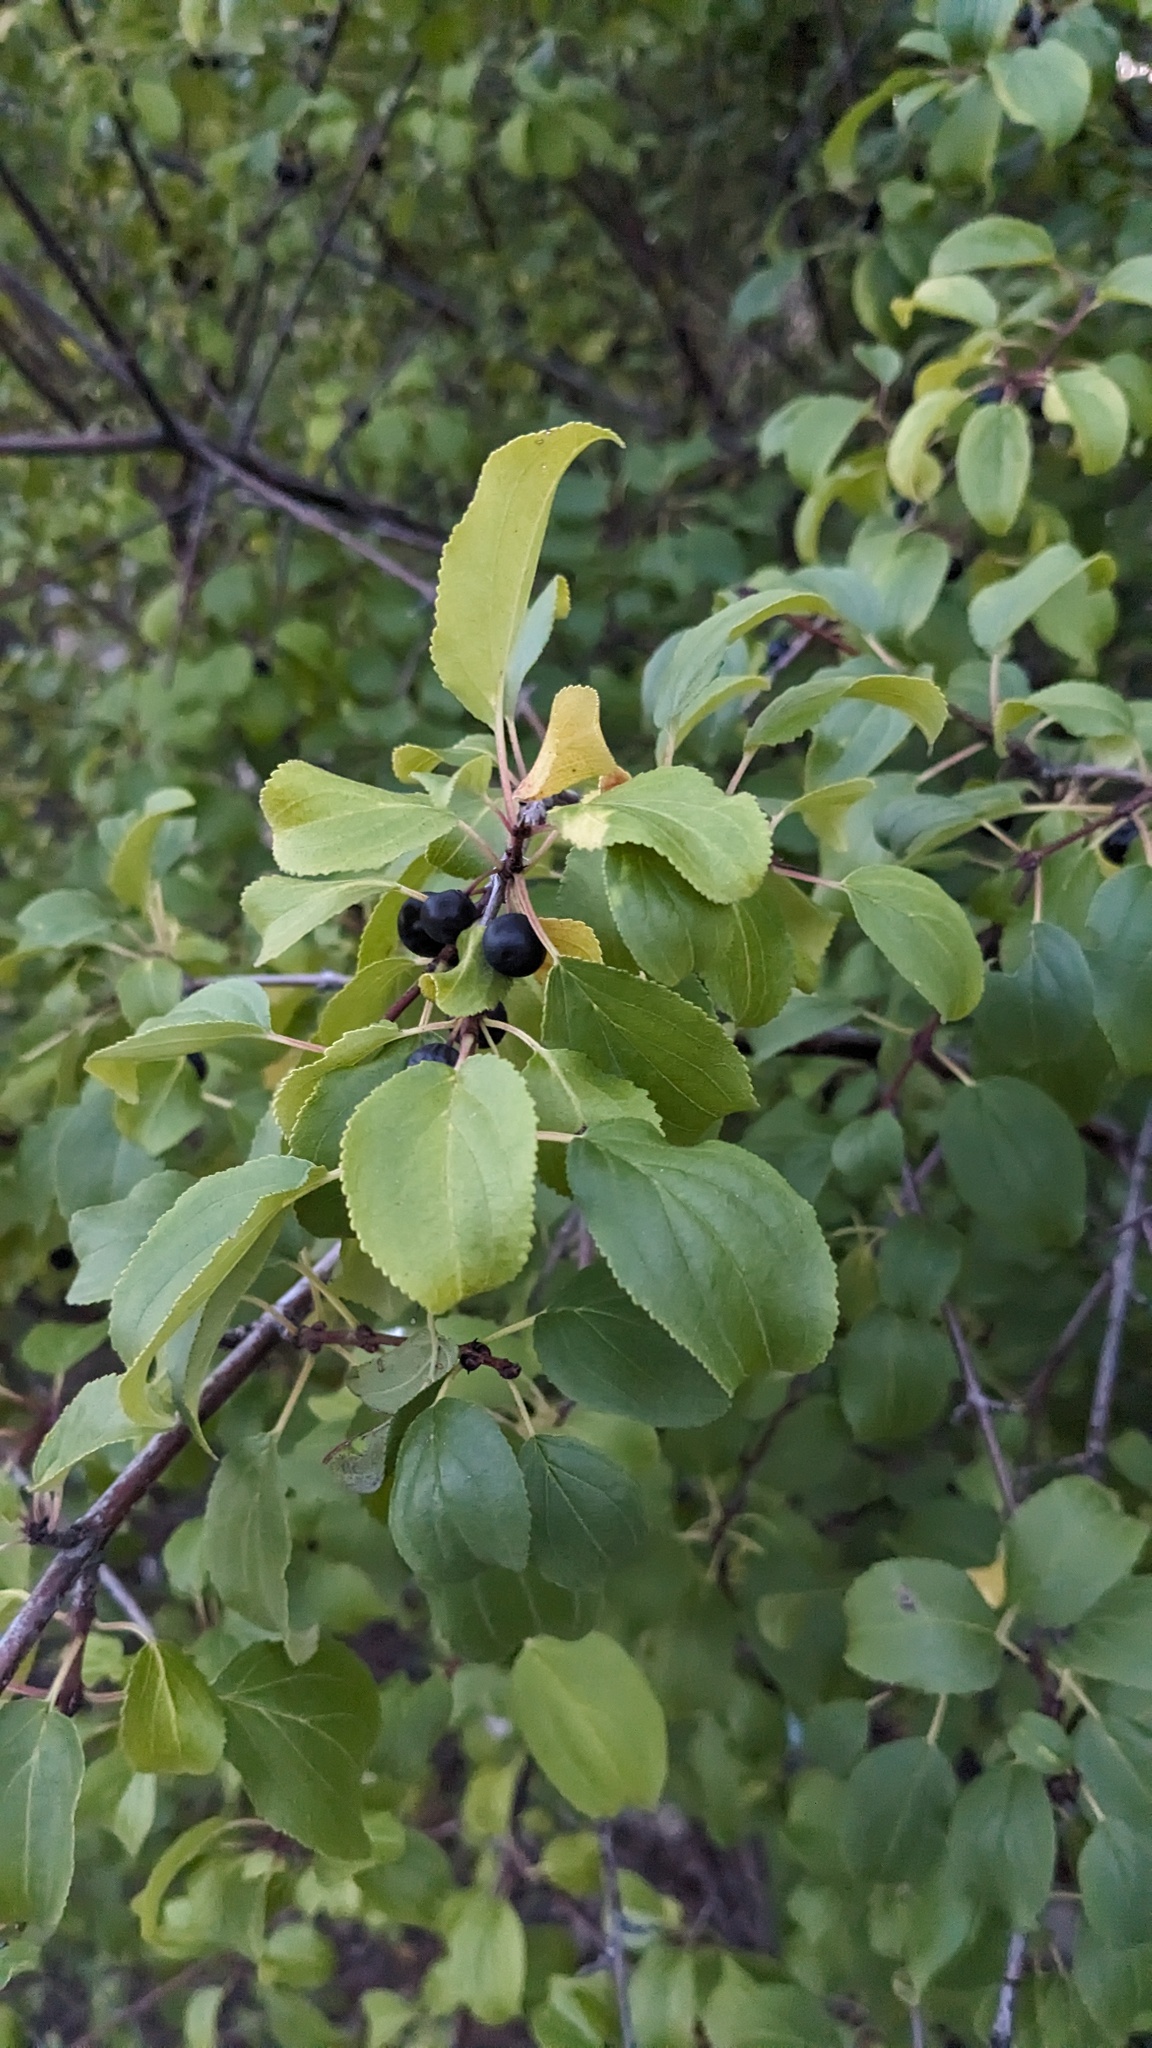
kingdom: Plantae
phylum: Tracheophyta
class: Magnoliopsida
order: Rosales
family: Rhamnaceae
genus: Rhamnus
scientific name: Rhamnus cathartica
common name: Common buckthorn
